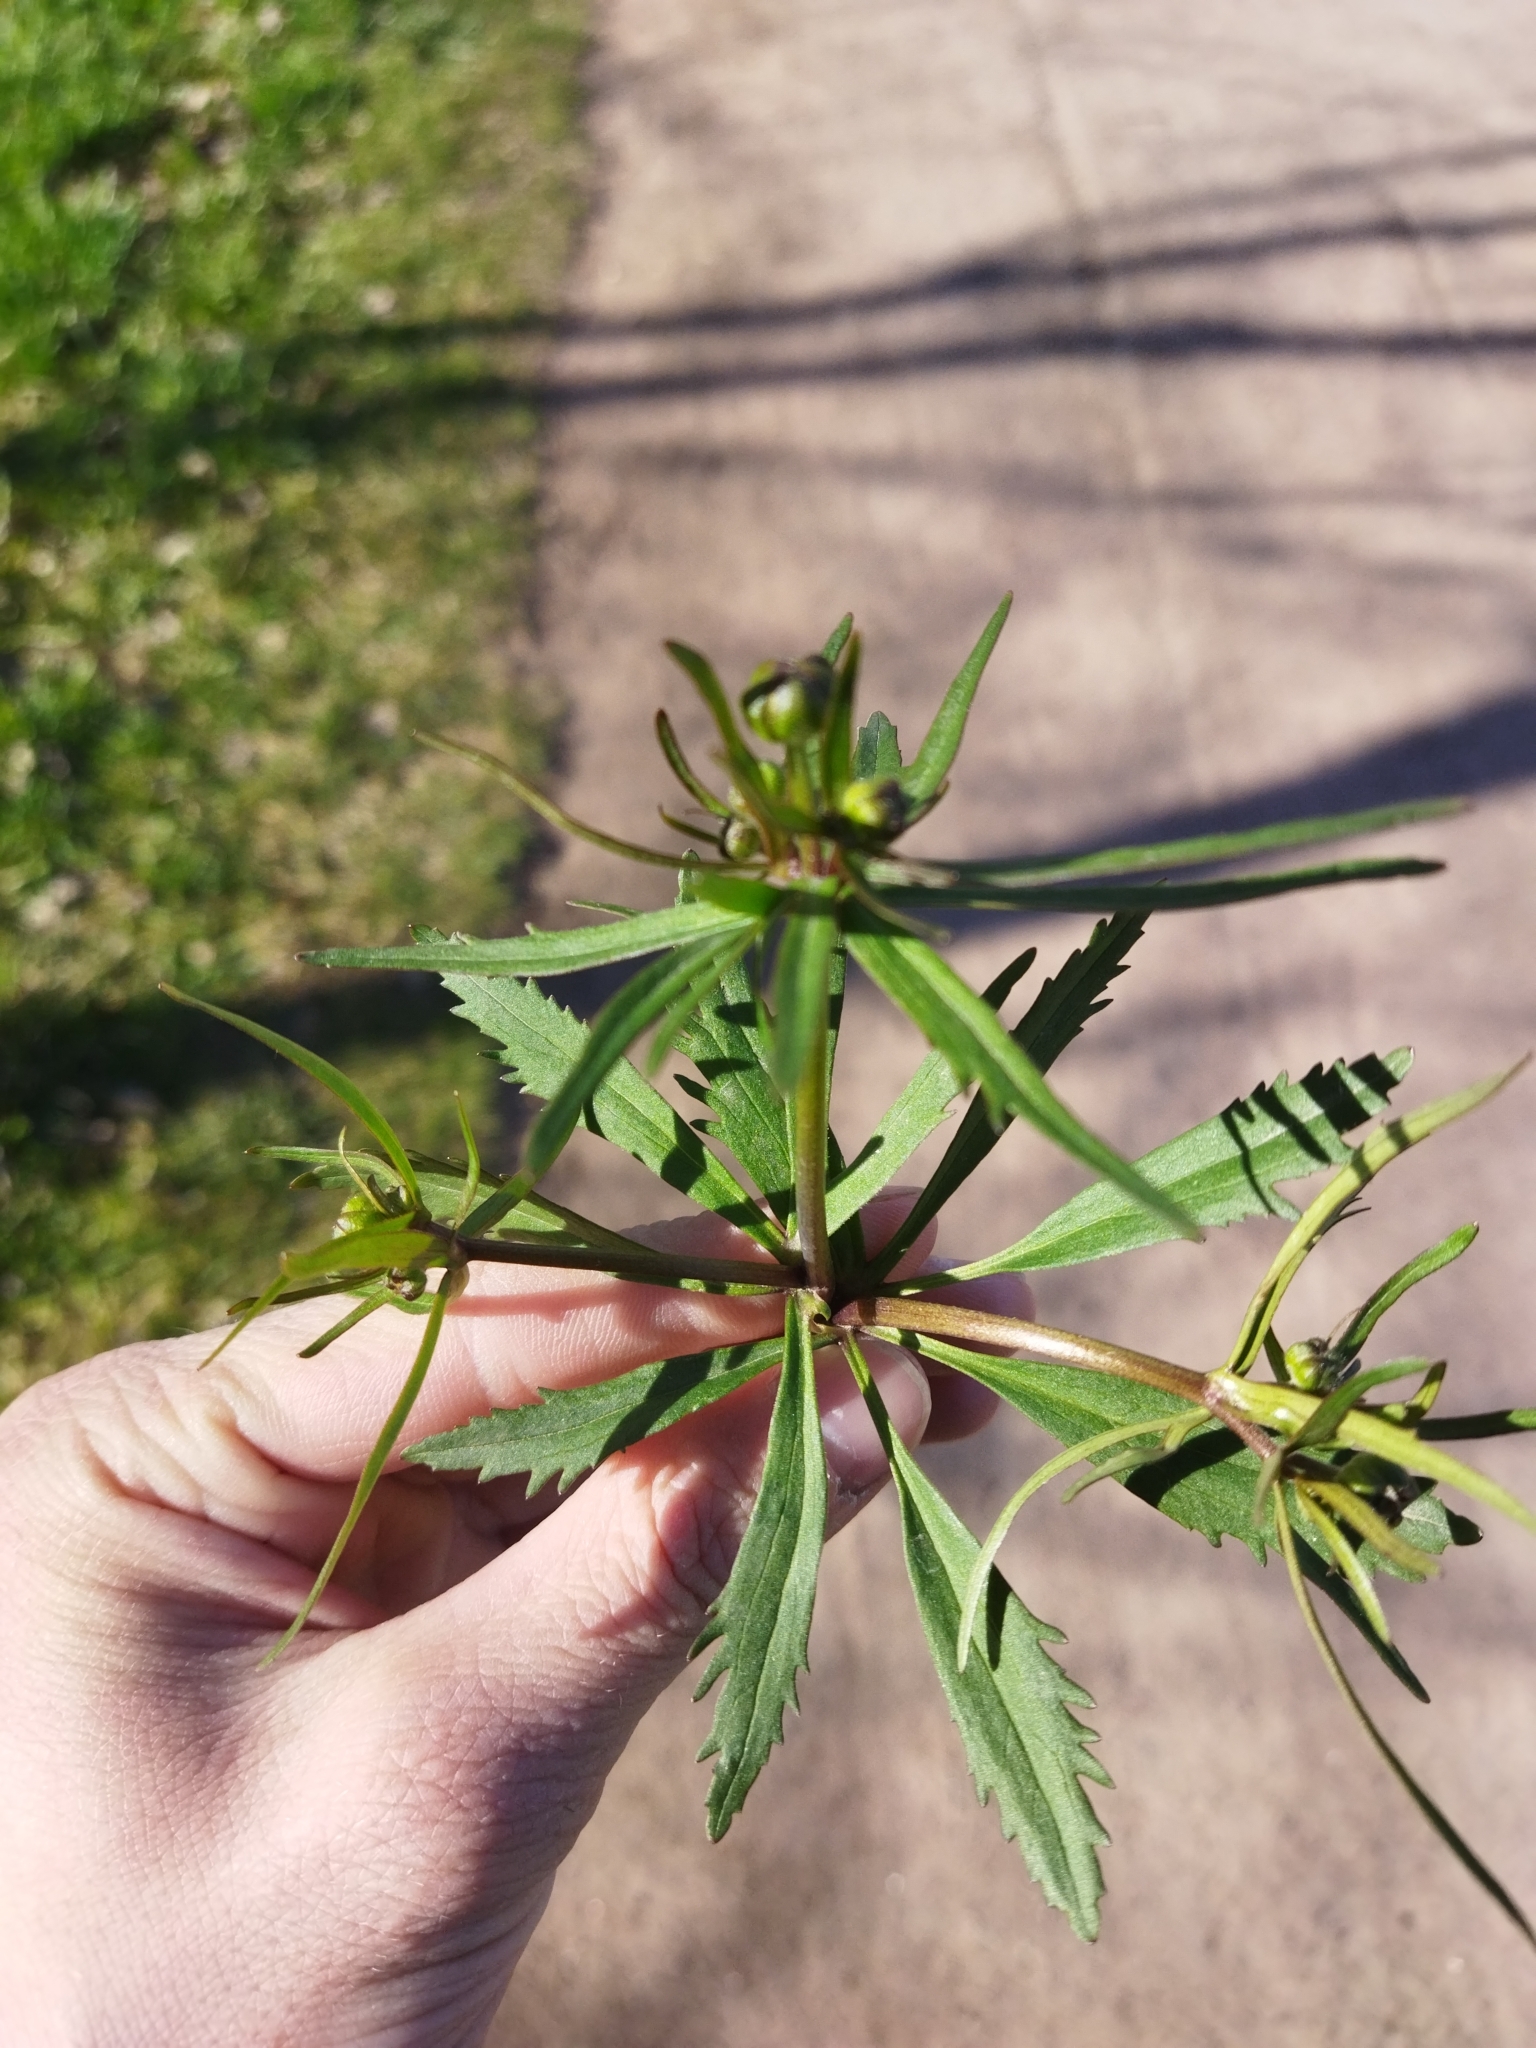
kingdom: Plantae
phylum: Tracheophyta
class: Magnoliopsida
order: Ranunculales
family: Ranunculaceae
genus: Ranunculus
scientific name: Ranunculus cassubicus
